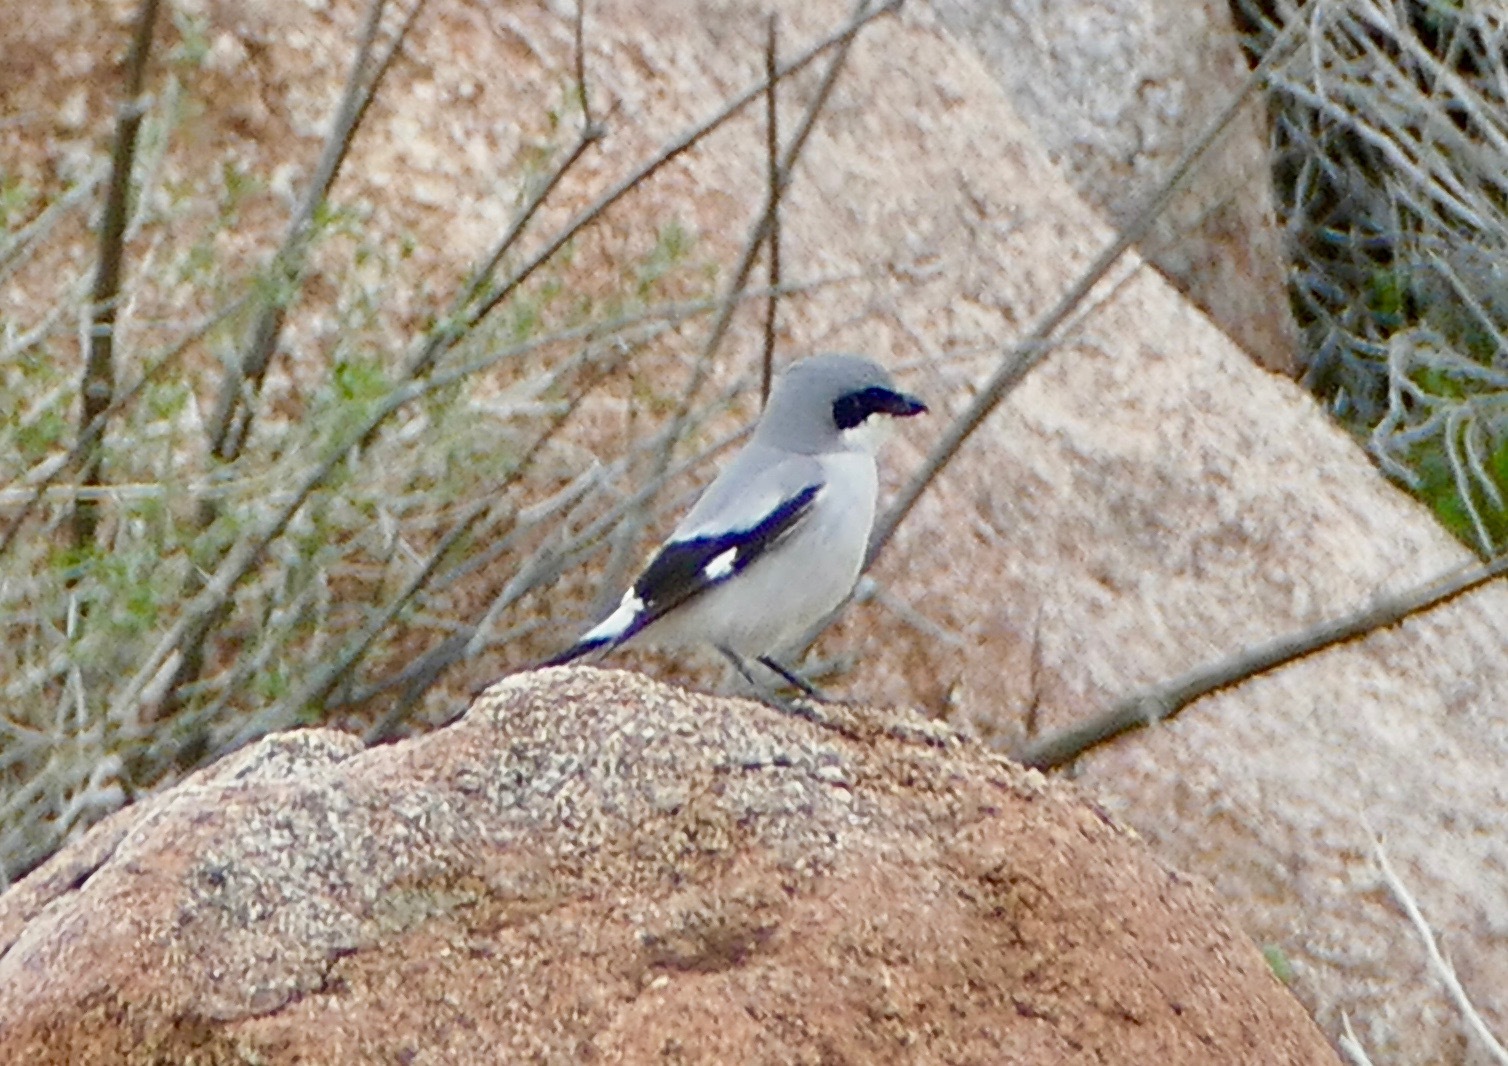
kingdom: Animalia
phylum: Chordata
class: Aves
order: Passeriformes
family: Laniidae
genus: Lanius
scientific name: Lanius ludovicianus
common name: Loggerhead shrike
